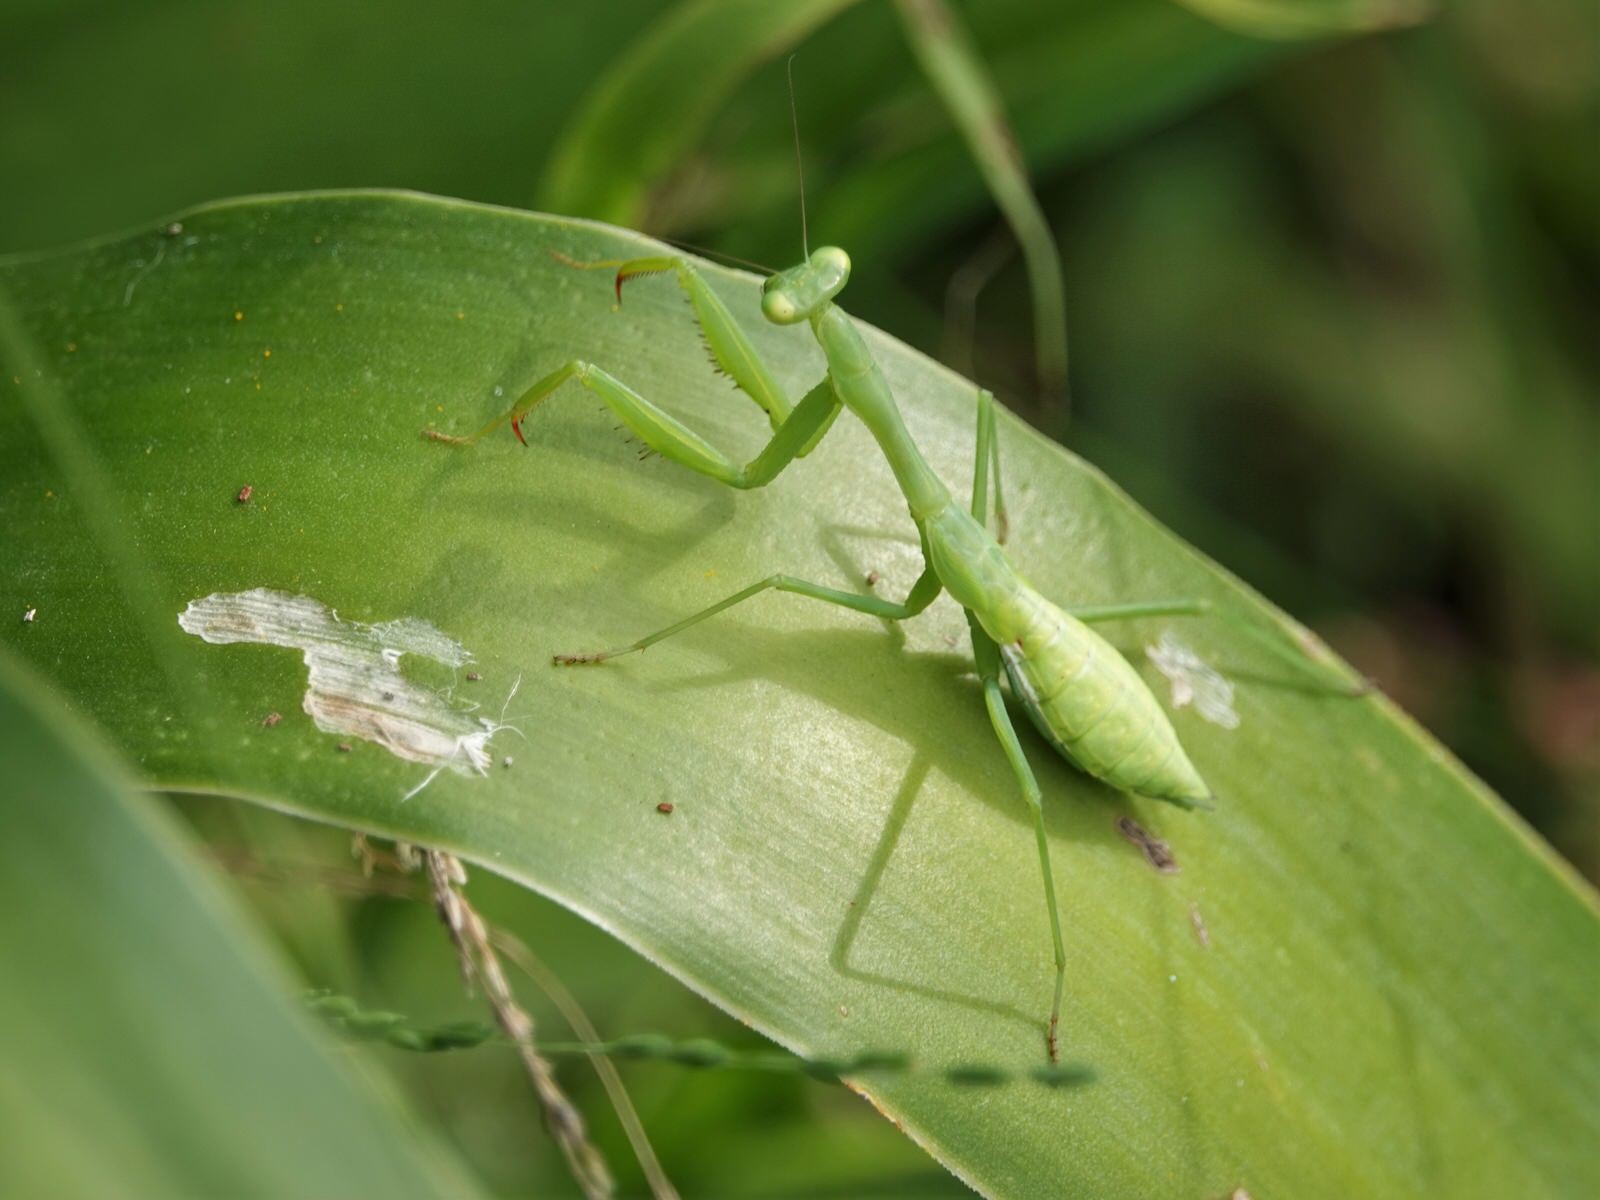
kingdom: Animalia
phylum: Arthropoda
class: Insecta
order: Mantodea
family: Miomantidae
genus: Miomantis
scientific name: Miomantis caffra
